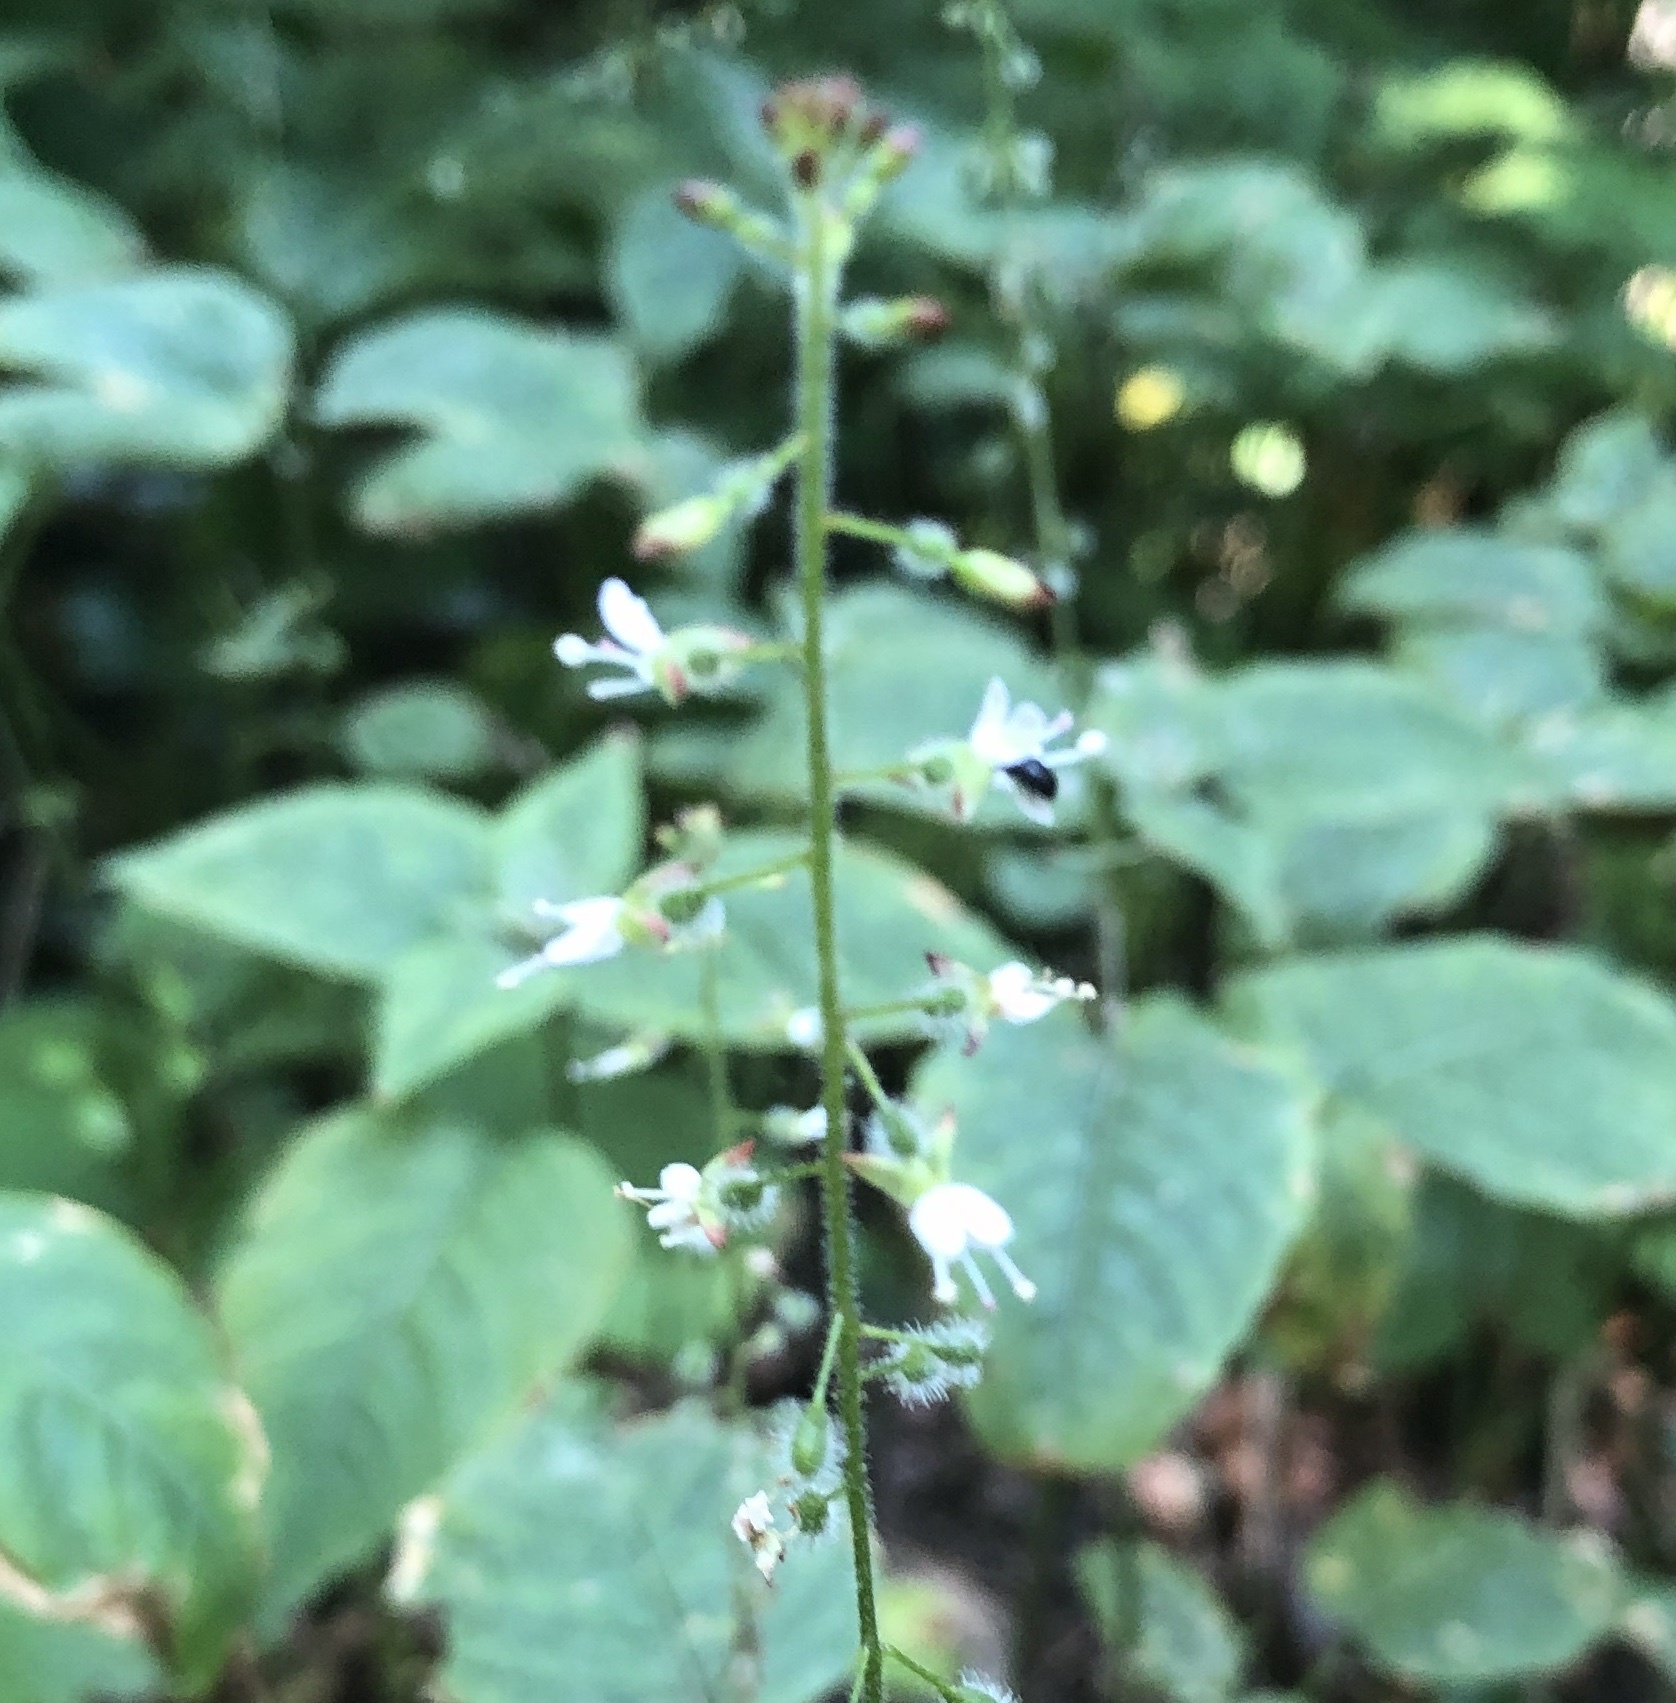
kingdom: Plantae
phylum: Tracheophyta
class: Magnoliopsida
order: Myrtales
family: Onagraceae
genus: Circaea
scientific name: Circaea lutetiana
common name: Enchanter's-nightshade
